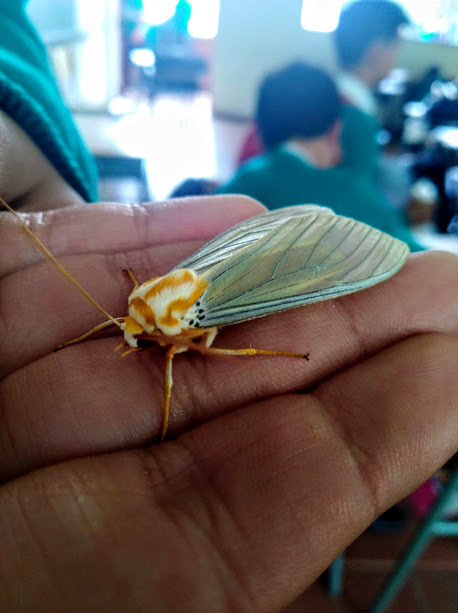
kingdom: Animalia
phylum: Arthropoda
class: Insecta
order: Lepidoptera
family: Erebidae
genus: Amastus
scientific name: Amastus thalassina
